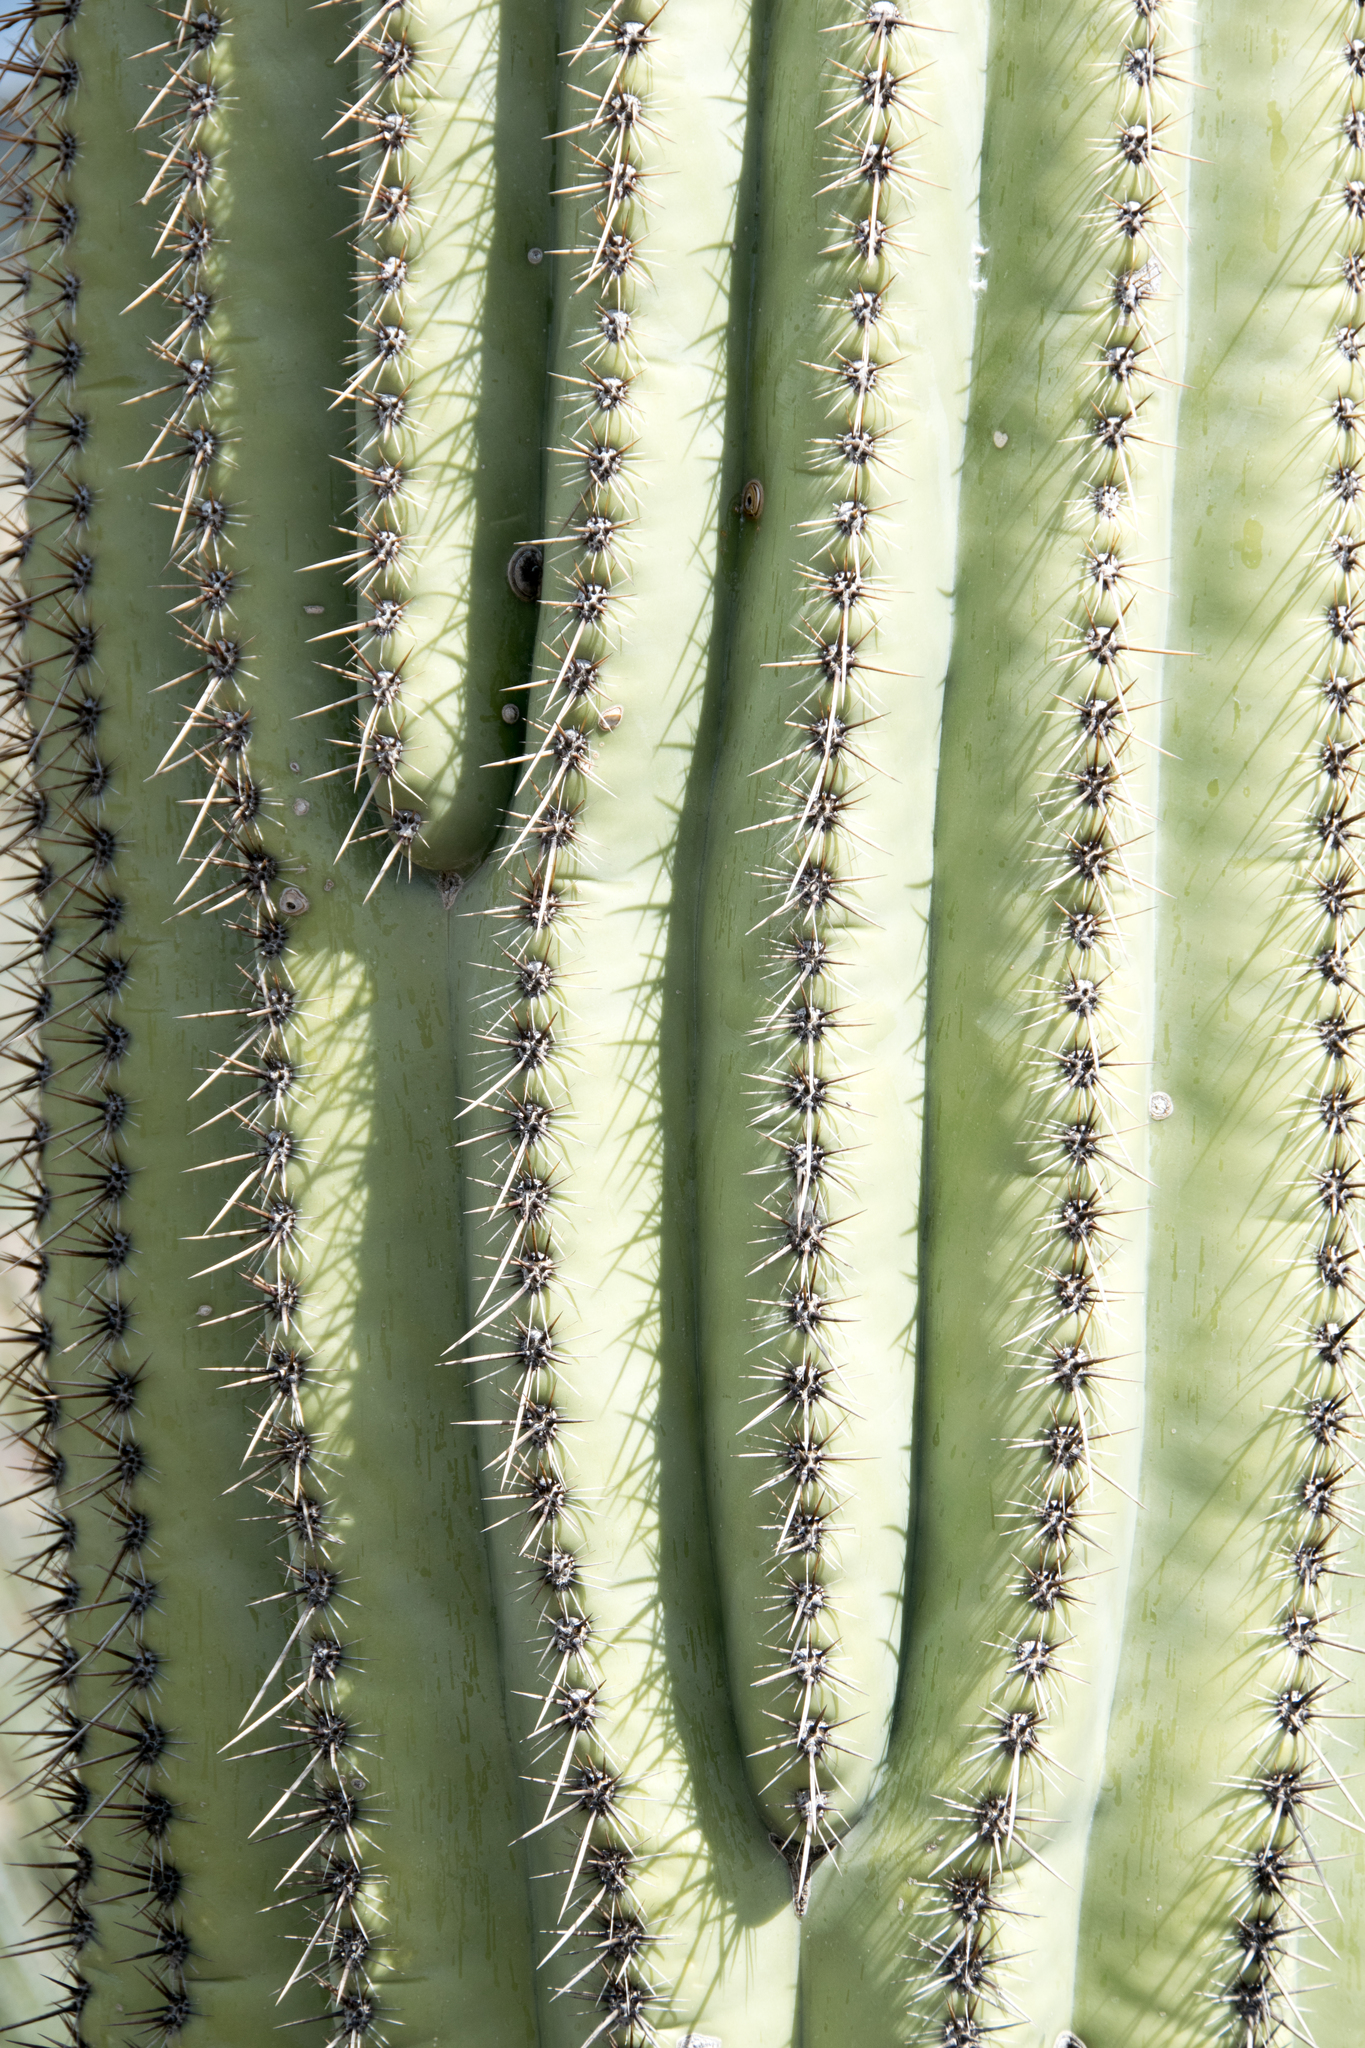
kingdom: Plantae
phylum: Tracheophyta
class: Magnoliopsida
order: Caryophyllales
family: Cactaceae
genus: Carnegiea
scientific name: Carnegiea gigantea
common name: Saguaro
